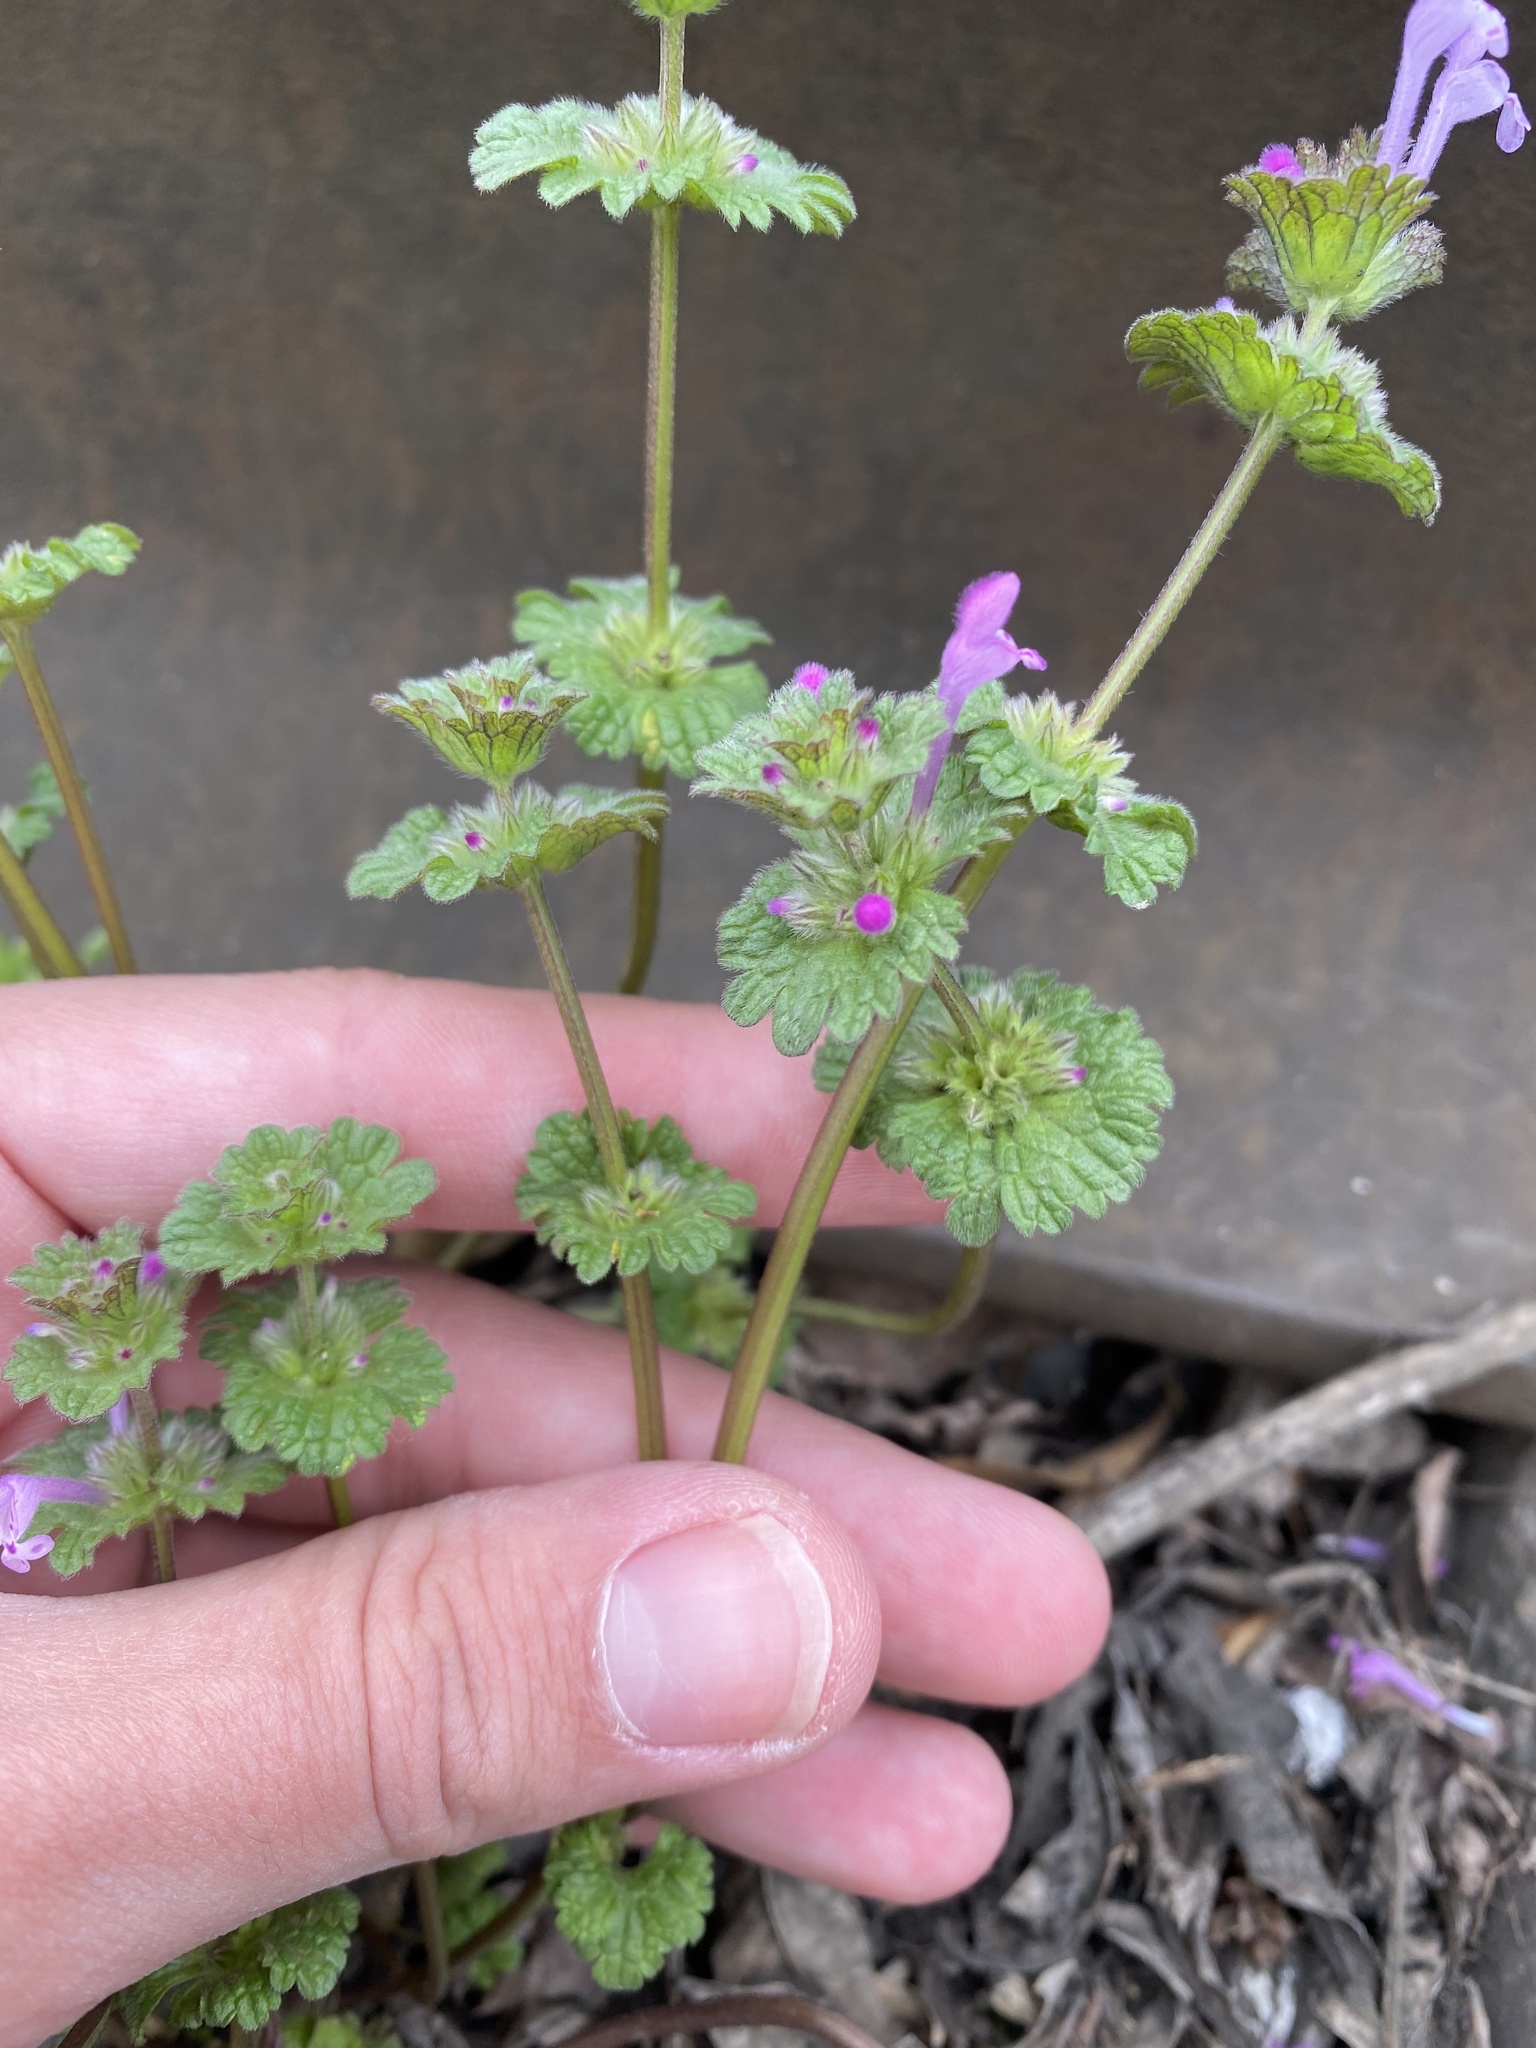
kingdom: Plantae
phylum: Tracheophyta
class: Magnoliopsida
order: Lamiales
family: Lamiaceae
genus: Lamium
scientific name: Lamium amplexicaule
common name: Henbit dead-nettle
